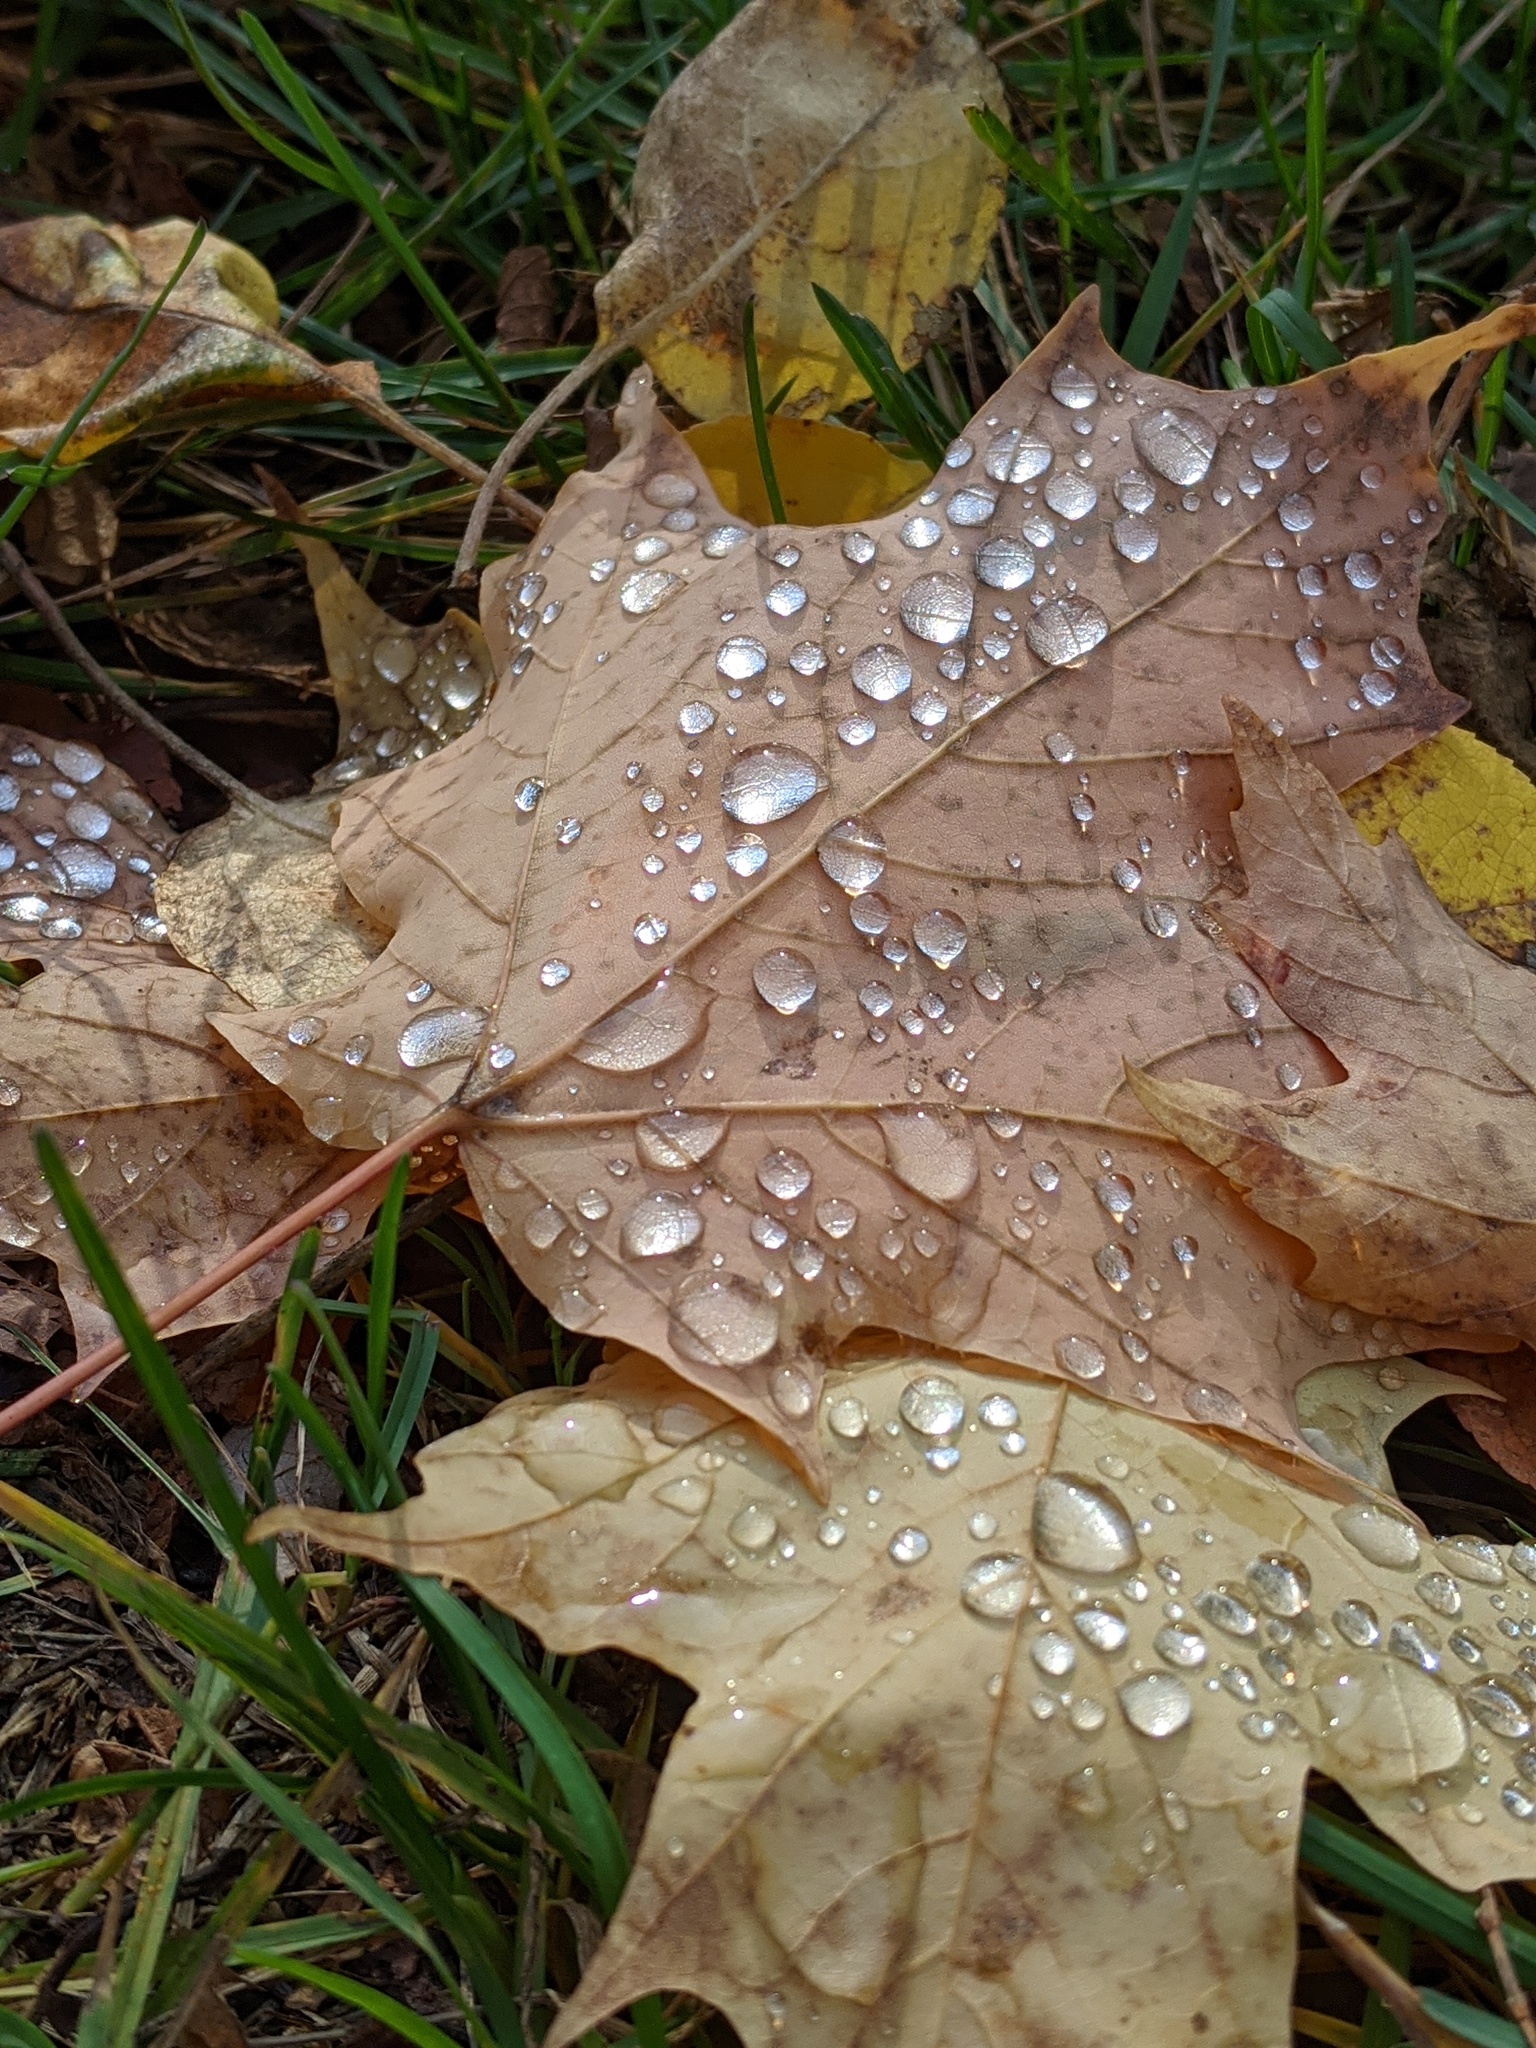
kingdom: Plantae
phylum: Tracheophyta
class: Magnoliopsida
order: Sapindales
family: Sapindaceae
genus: Acer
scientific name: Acer saccharum
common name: Sugar maple
